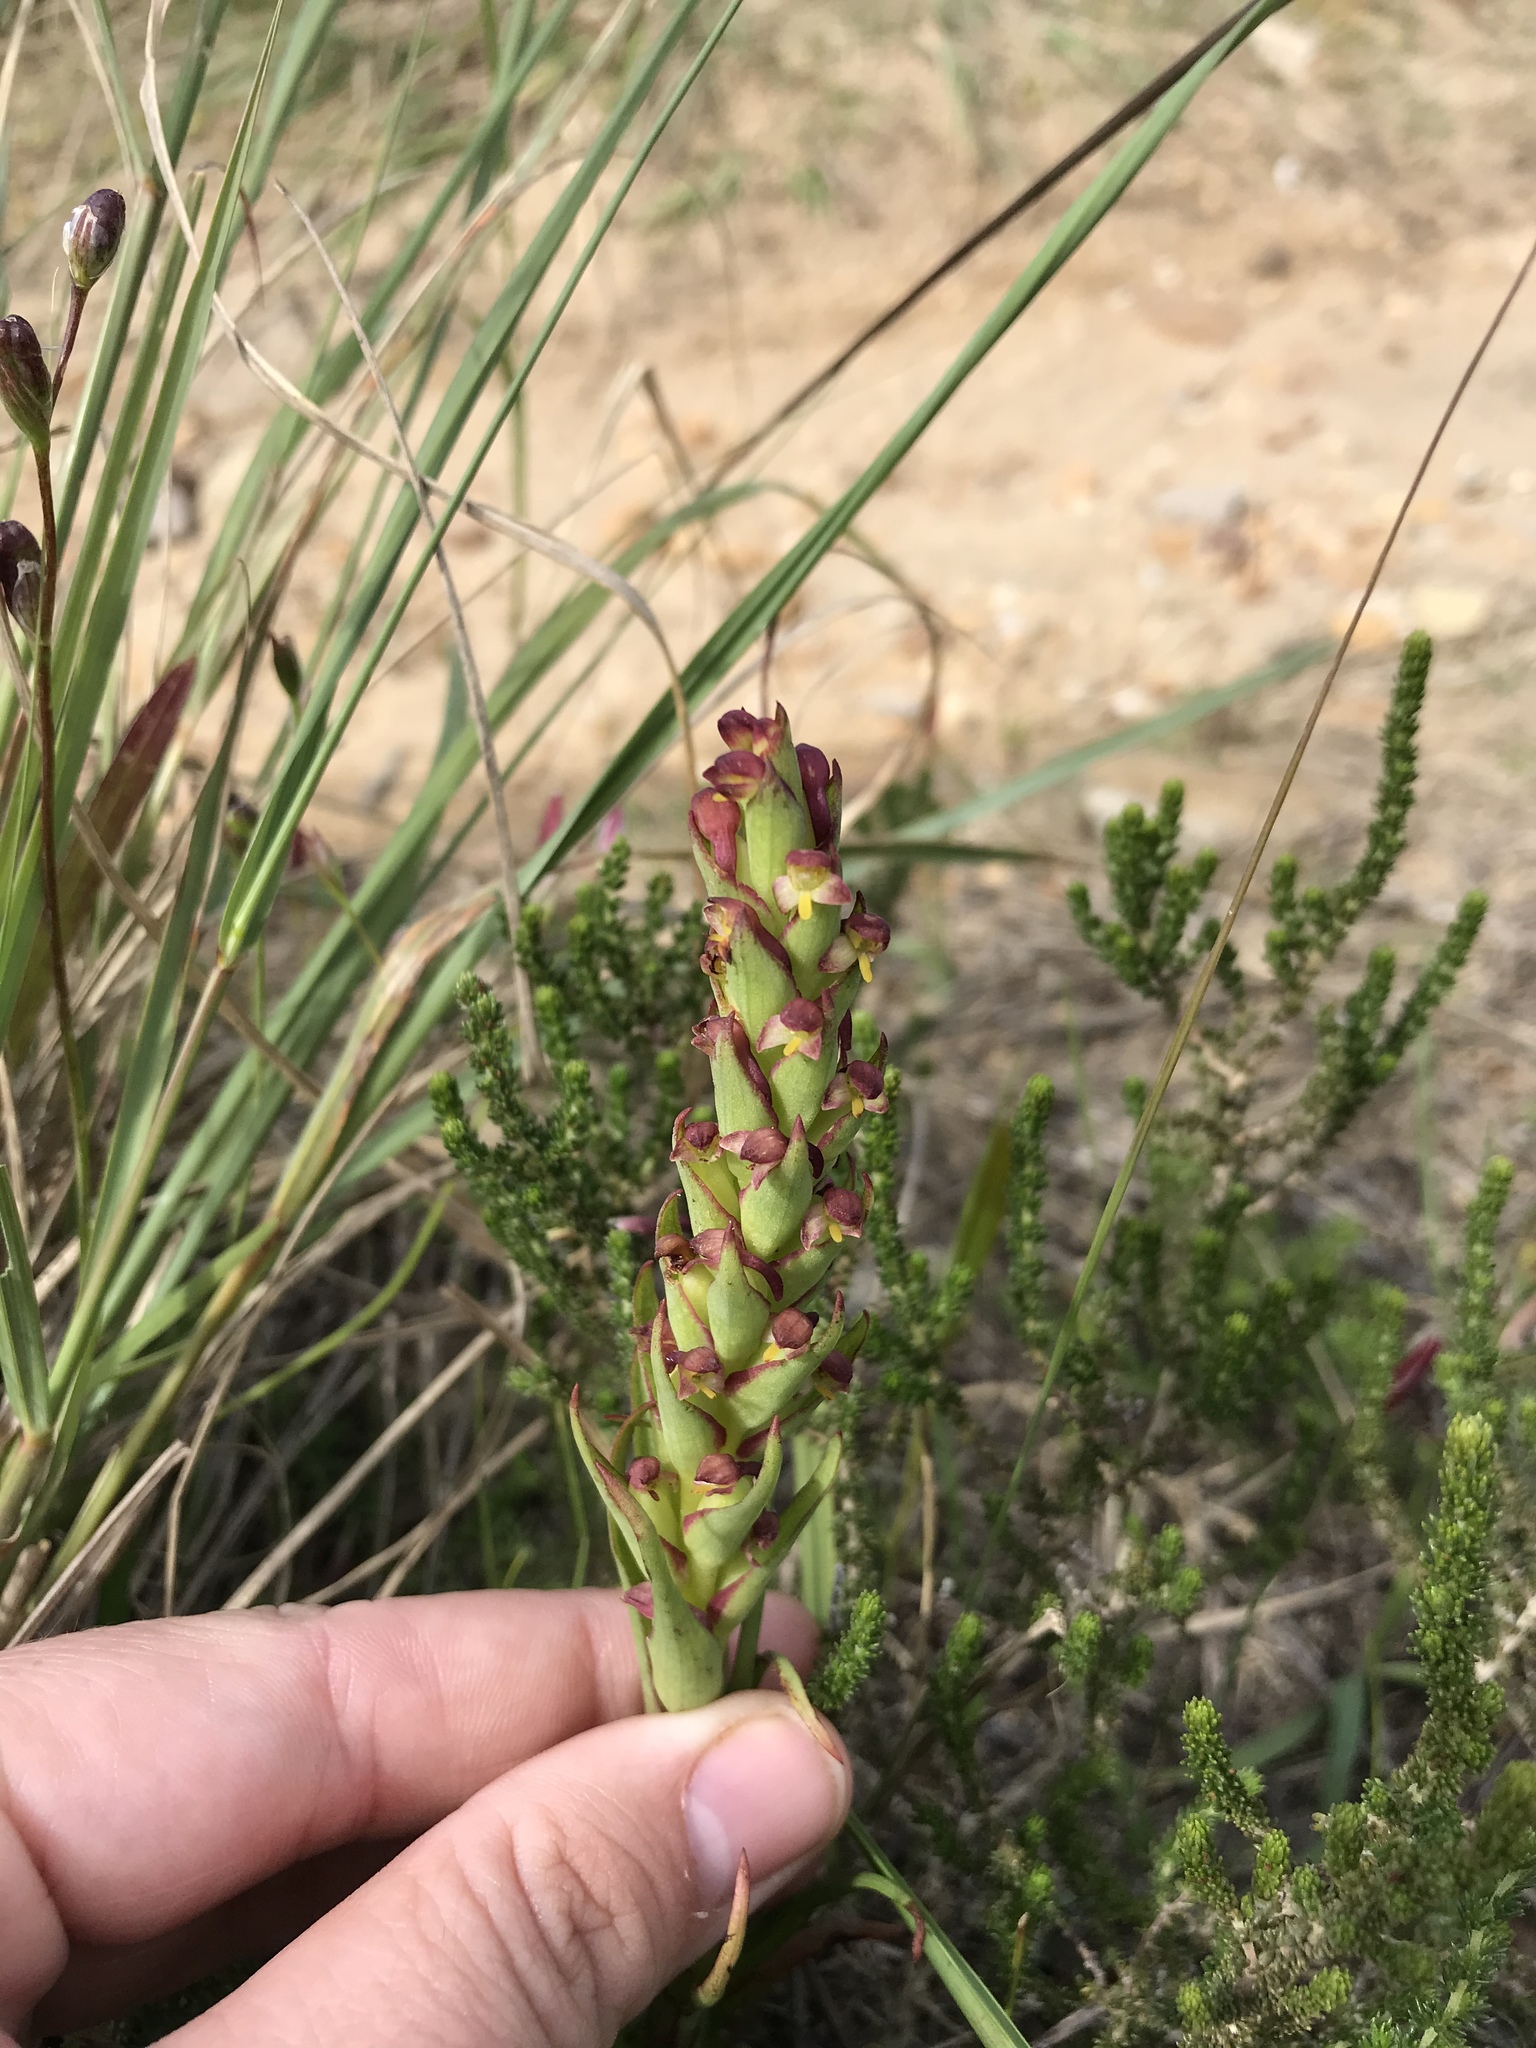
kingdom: Plantae
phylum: Tracheophyta
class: Liliopsida
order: Asparagales
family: Orchidaceae
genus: Disa
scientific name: Disa bracteata
